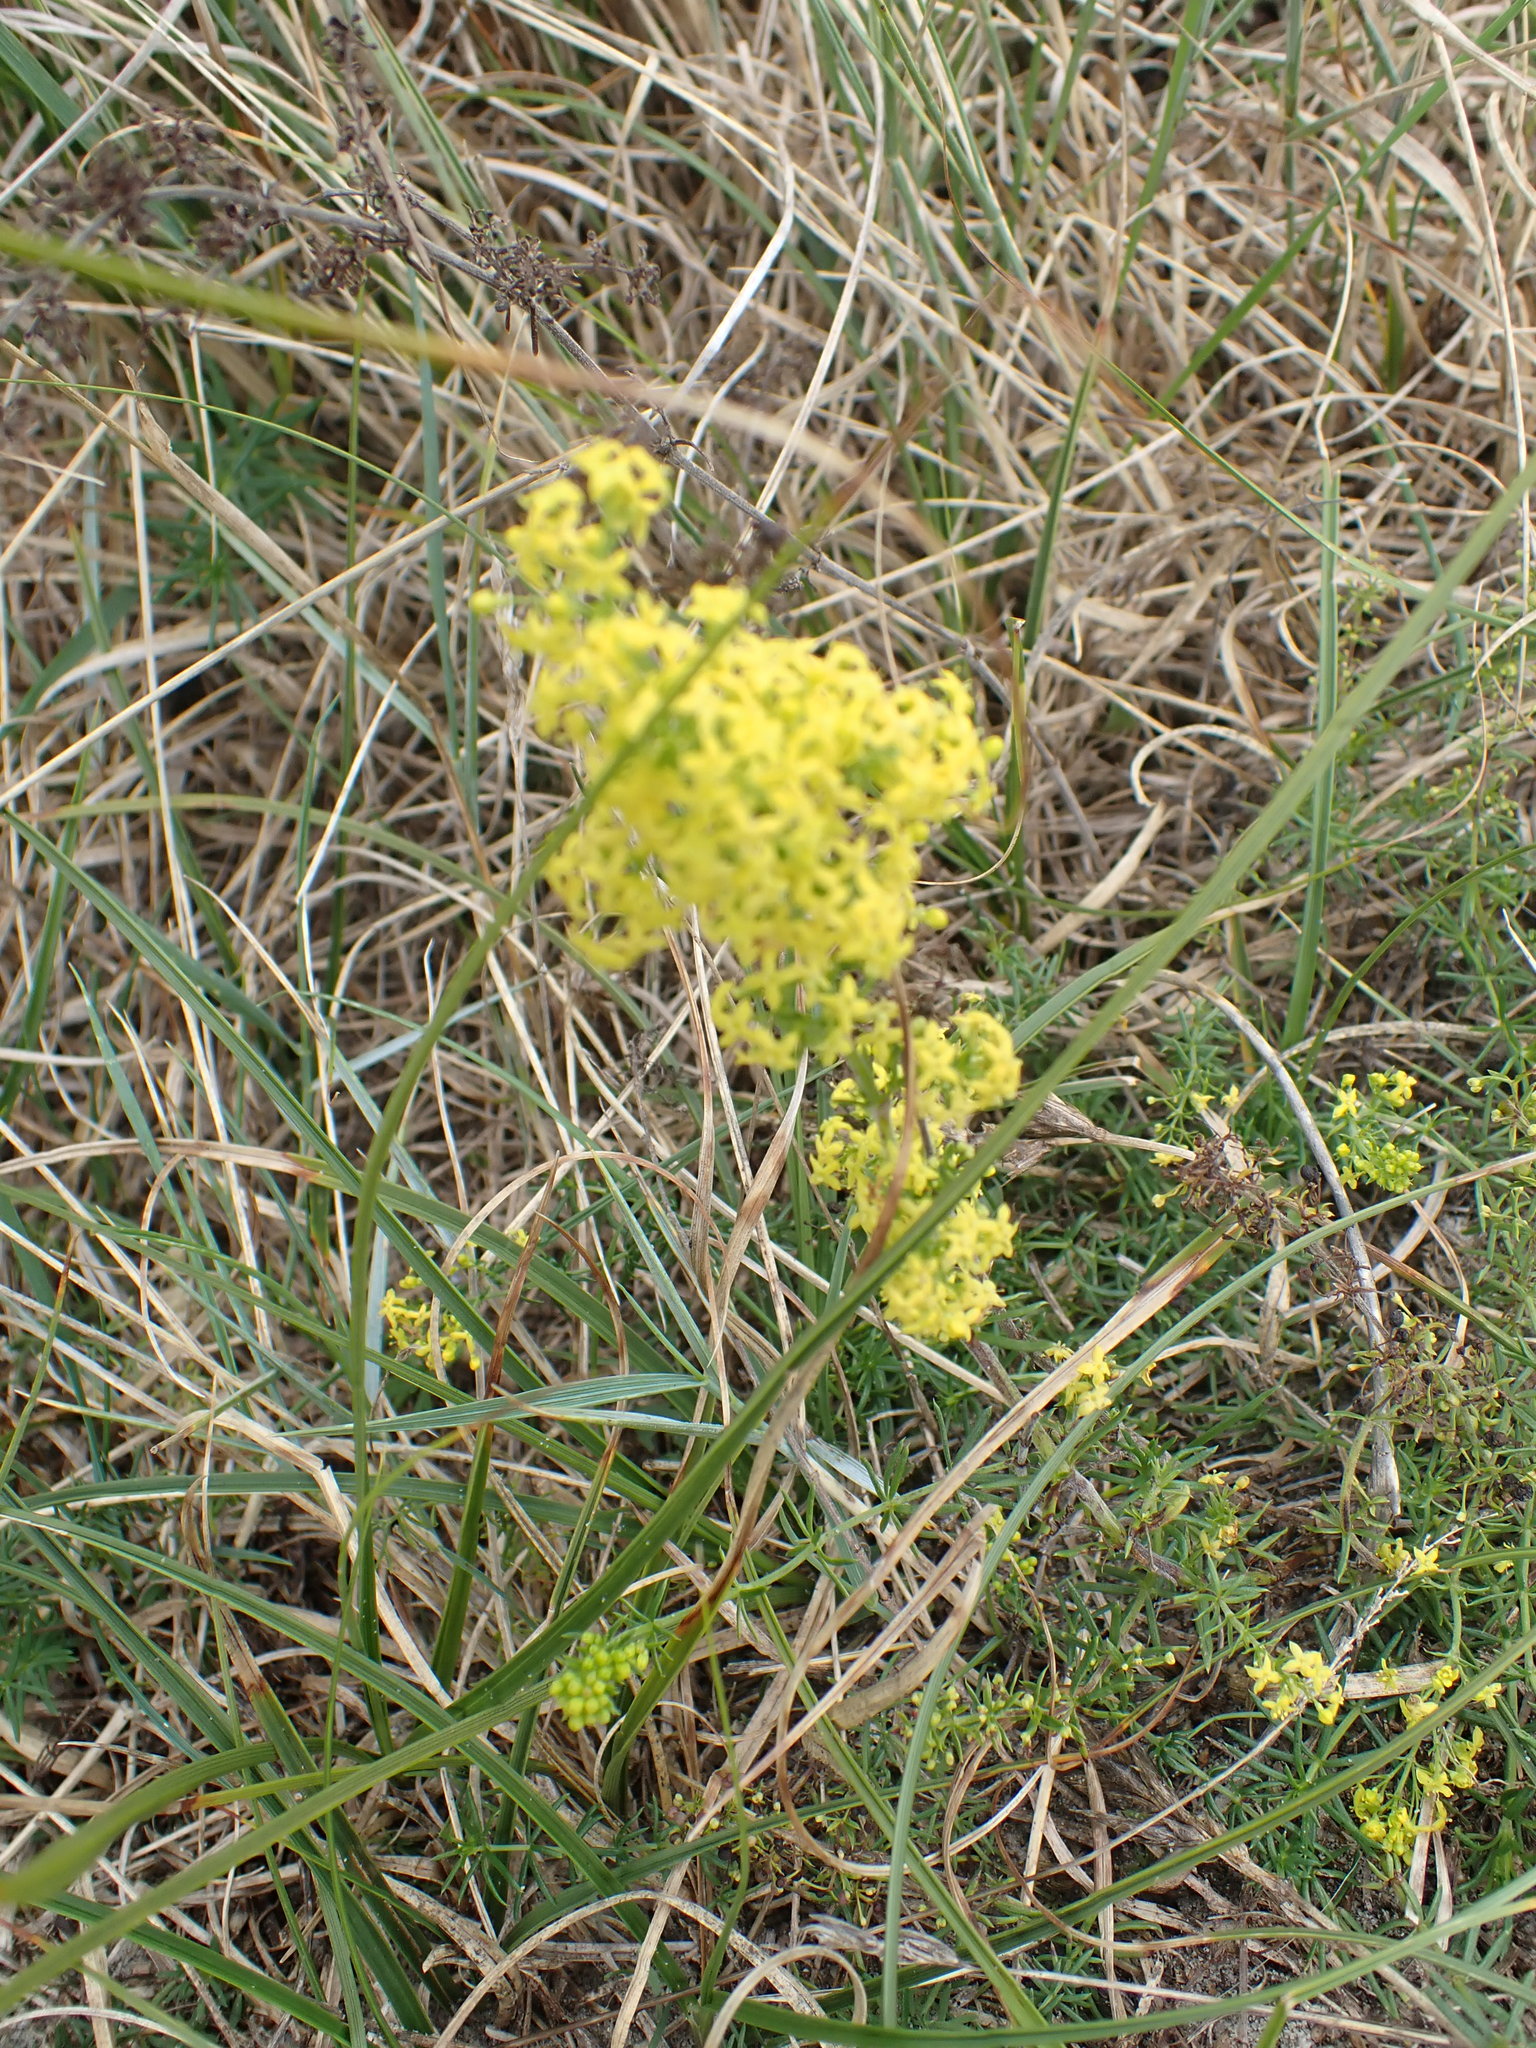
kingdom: Plantae
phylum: Tracheophyta
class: Magnoliopsida
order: Gentianales
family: Rubiaceae
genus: Galium
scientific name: Galium verum
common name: Lady's bedstraw
